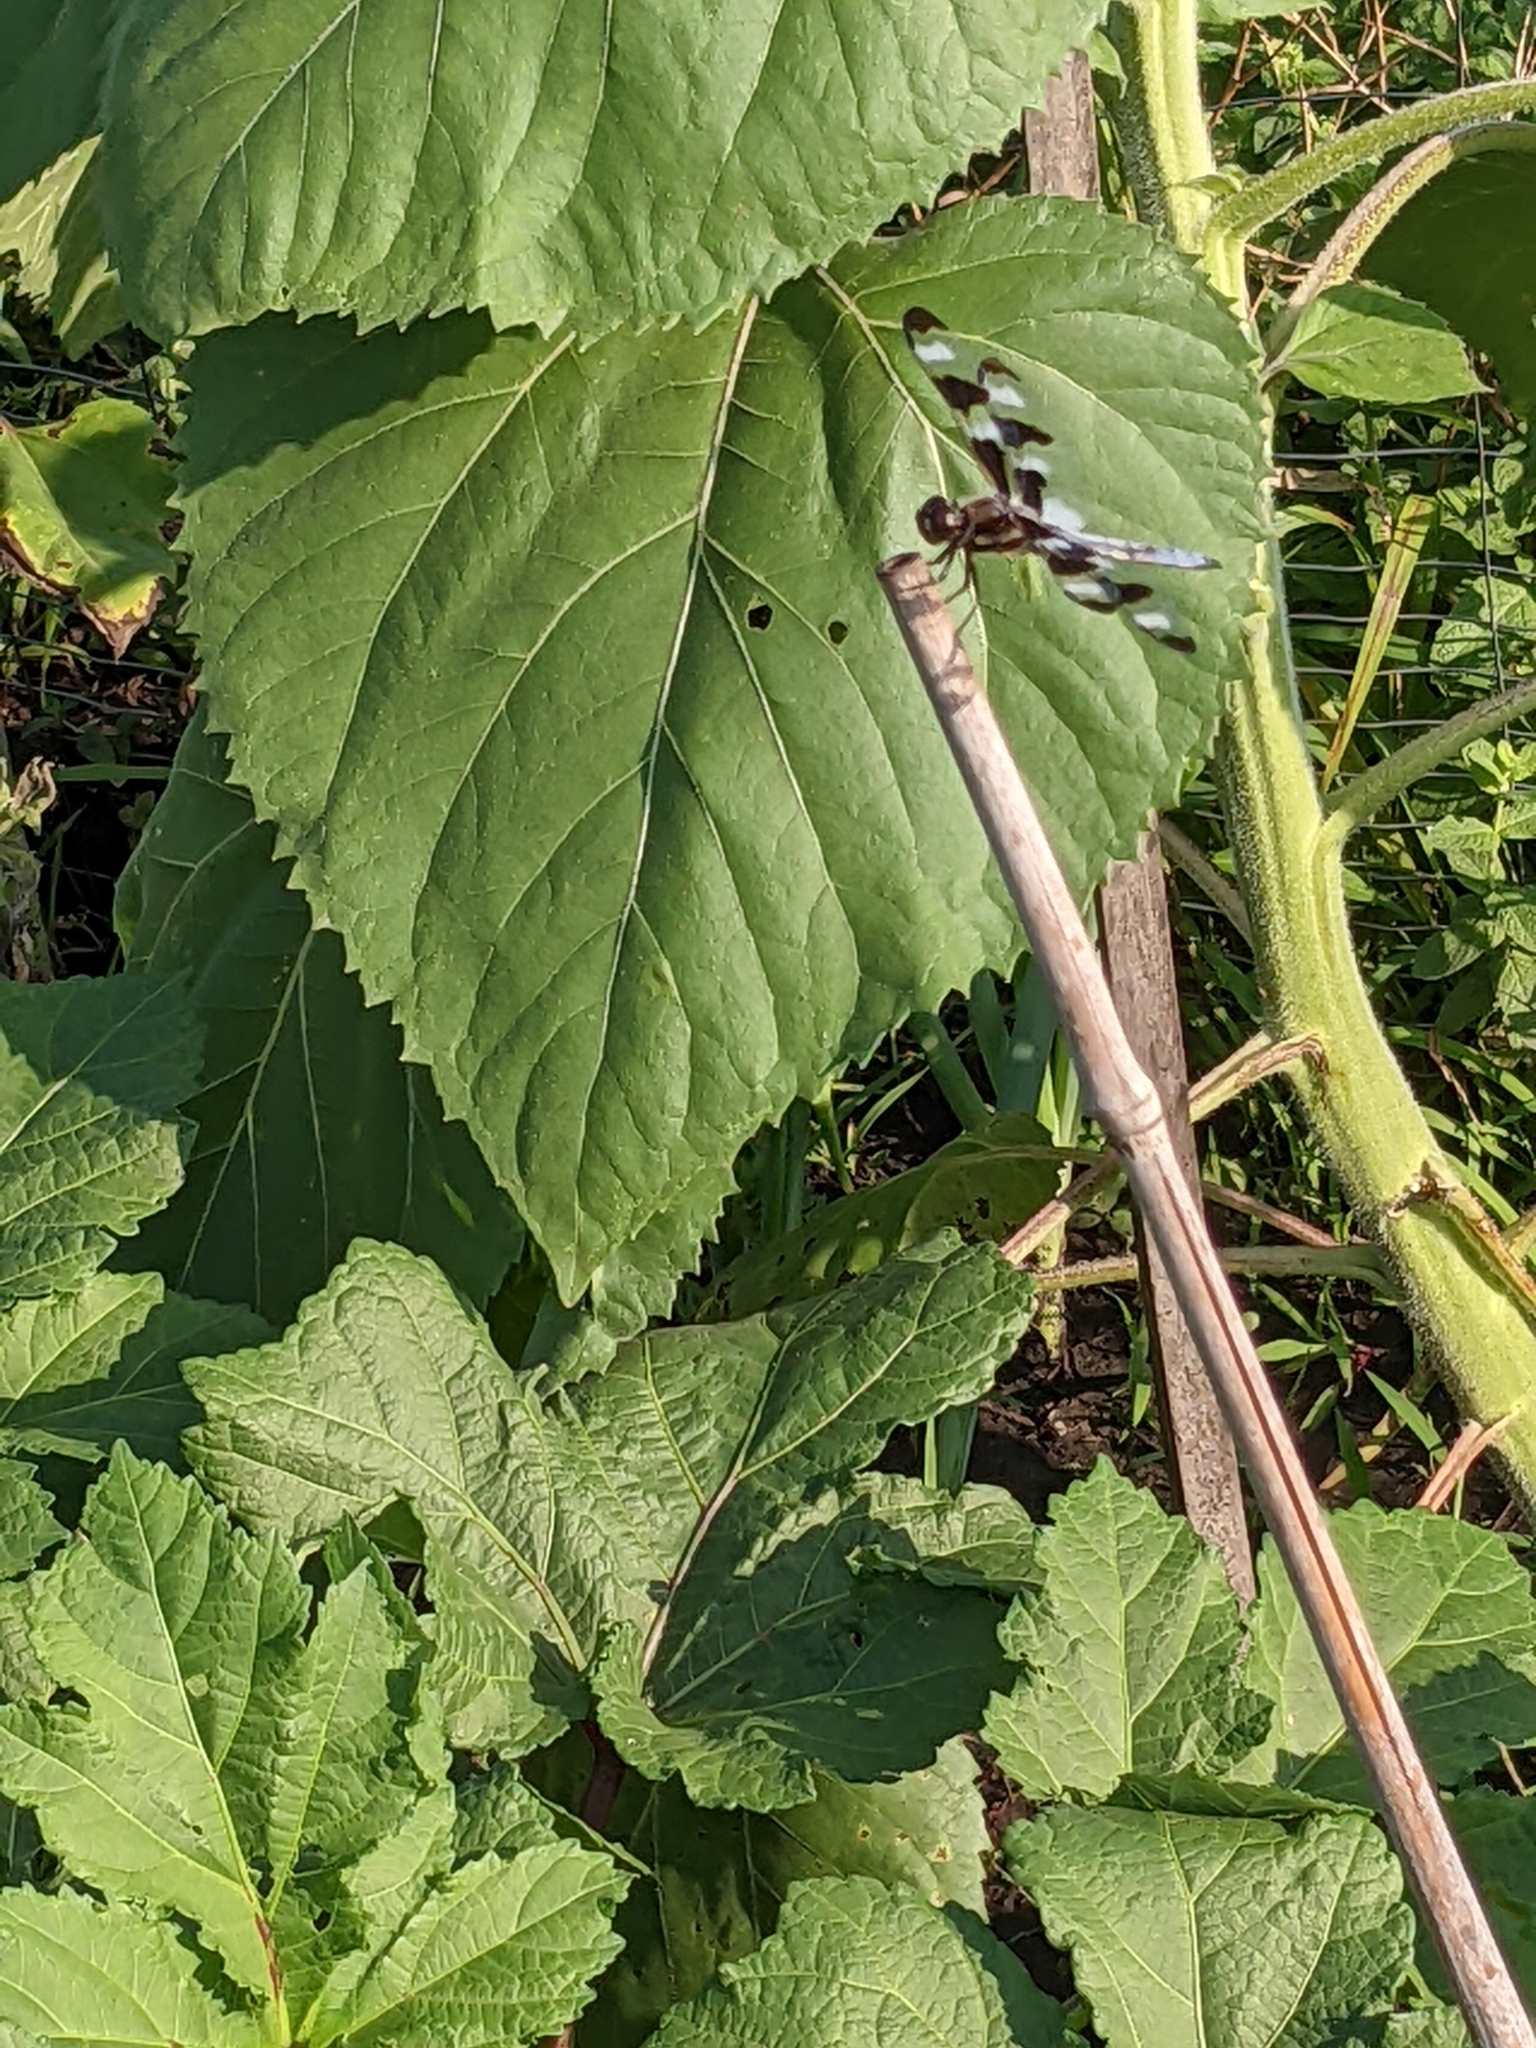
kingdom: Animalia
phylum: Arthropoda
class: Insecta
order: Odonata
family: Libellulidae
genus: Libellula
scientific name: Libellula pulchella
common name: Twelve-spotted skimmer
